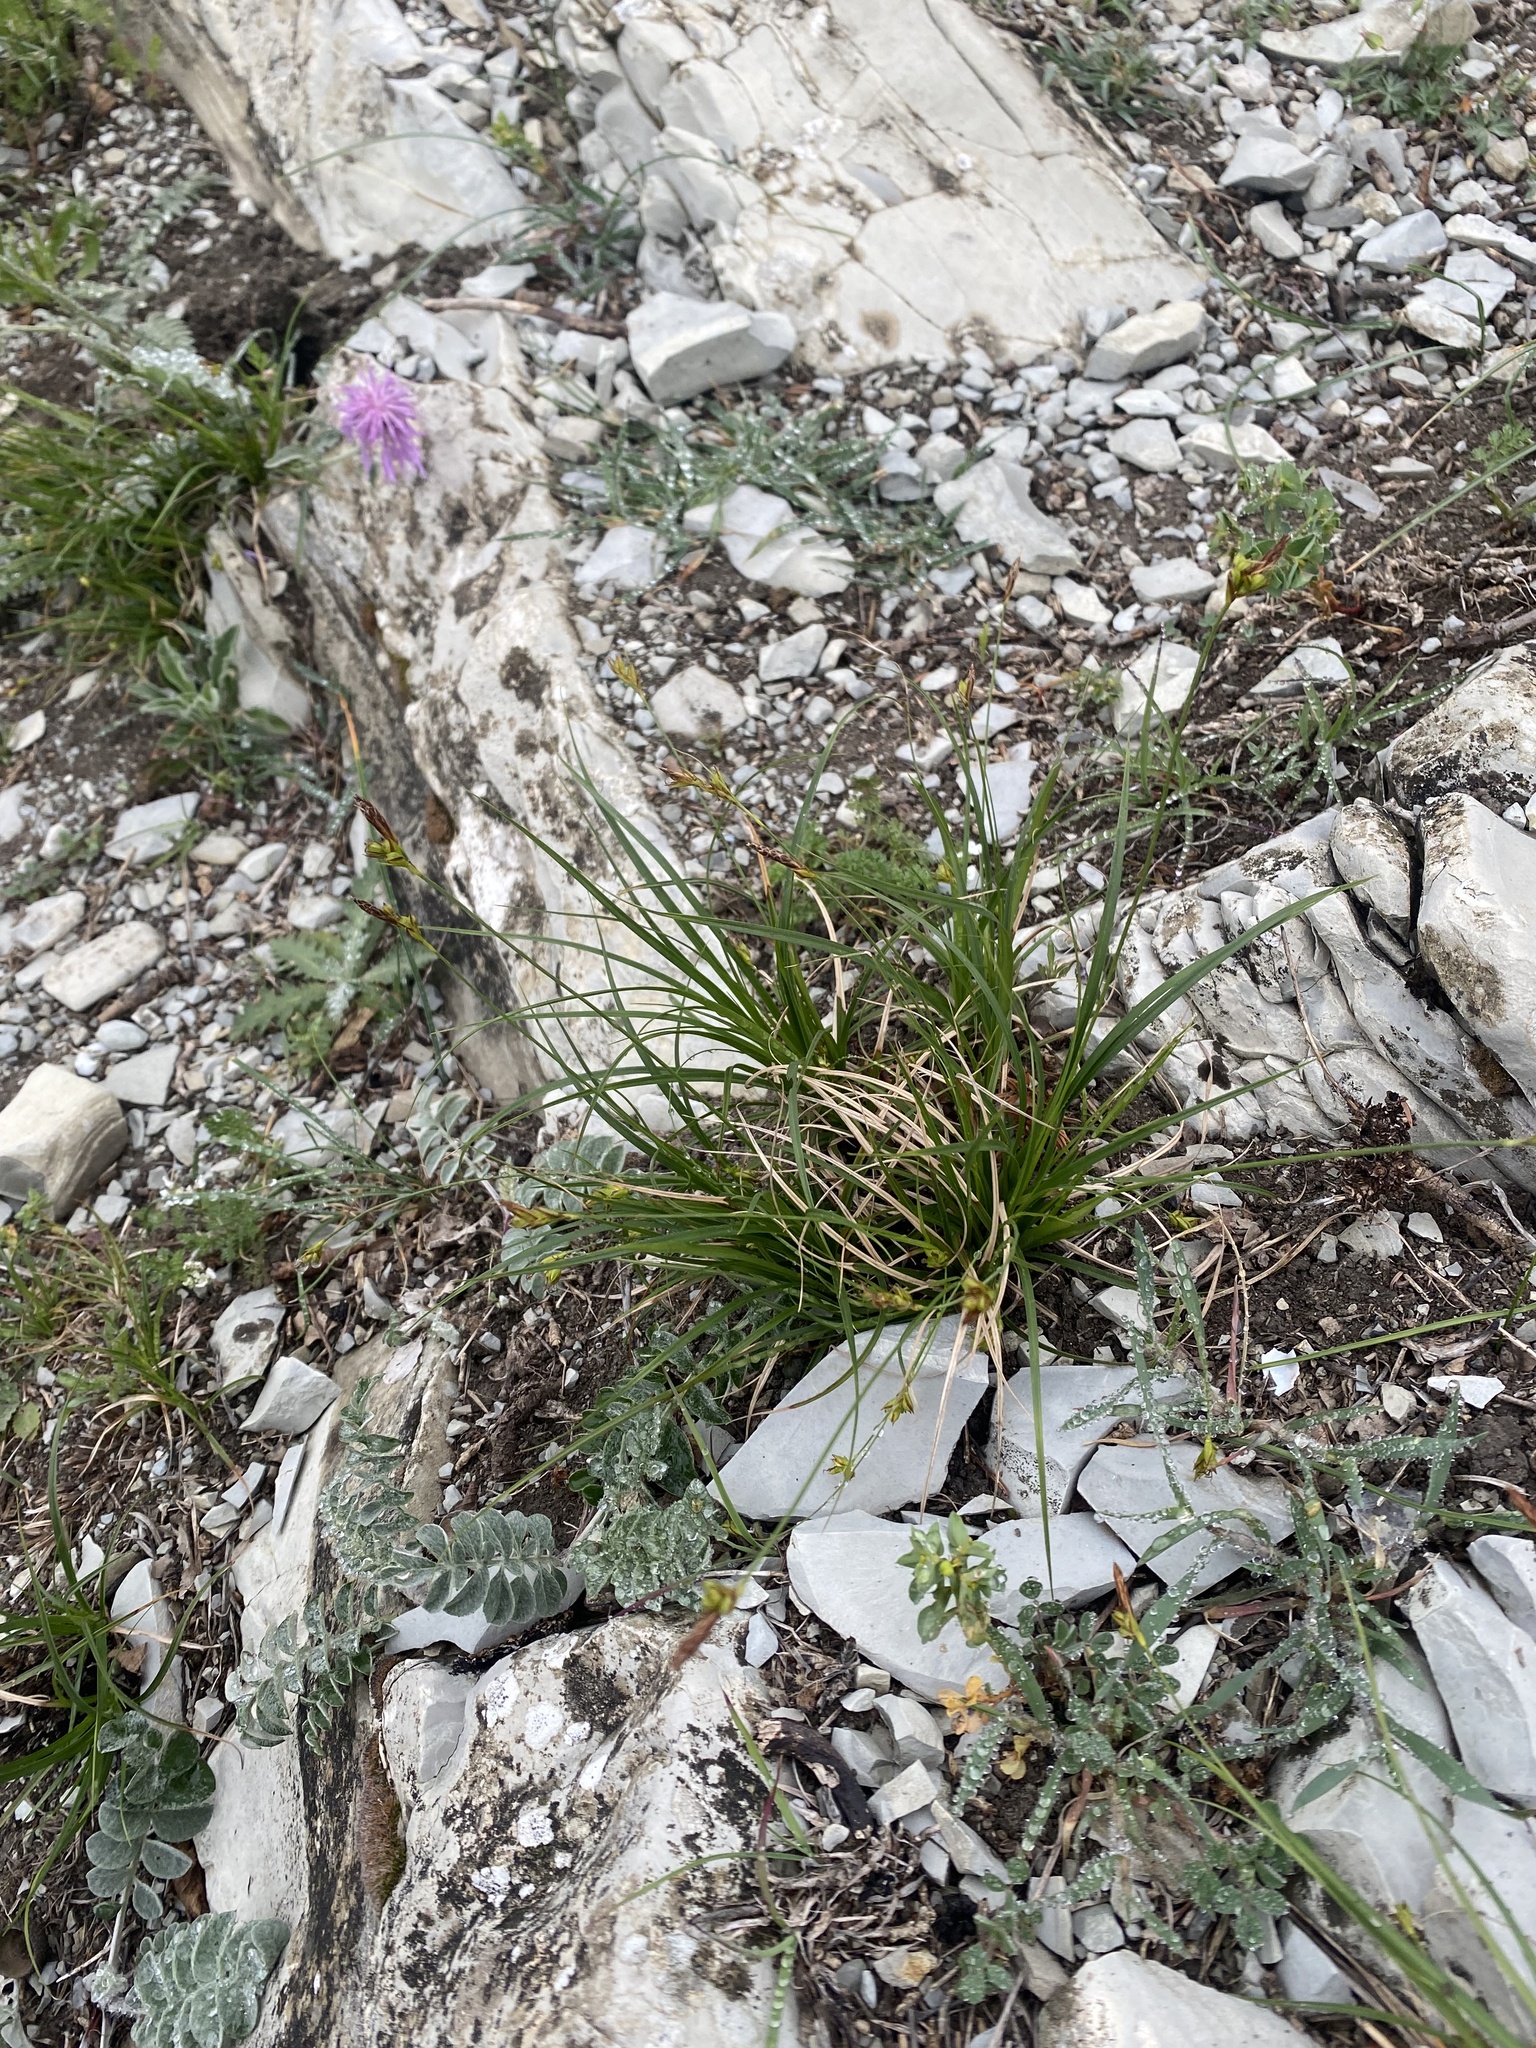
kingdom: Plantae
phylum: Tracheophyta
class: Liliopsida
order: Poales
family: Cyperaceae
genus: Carex
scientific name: Carex halleriana
